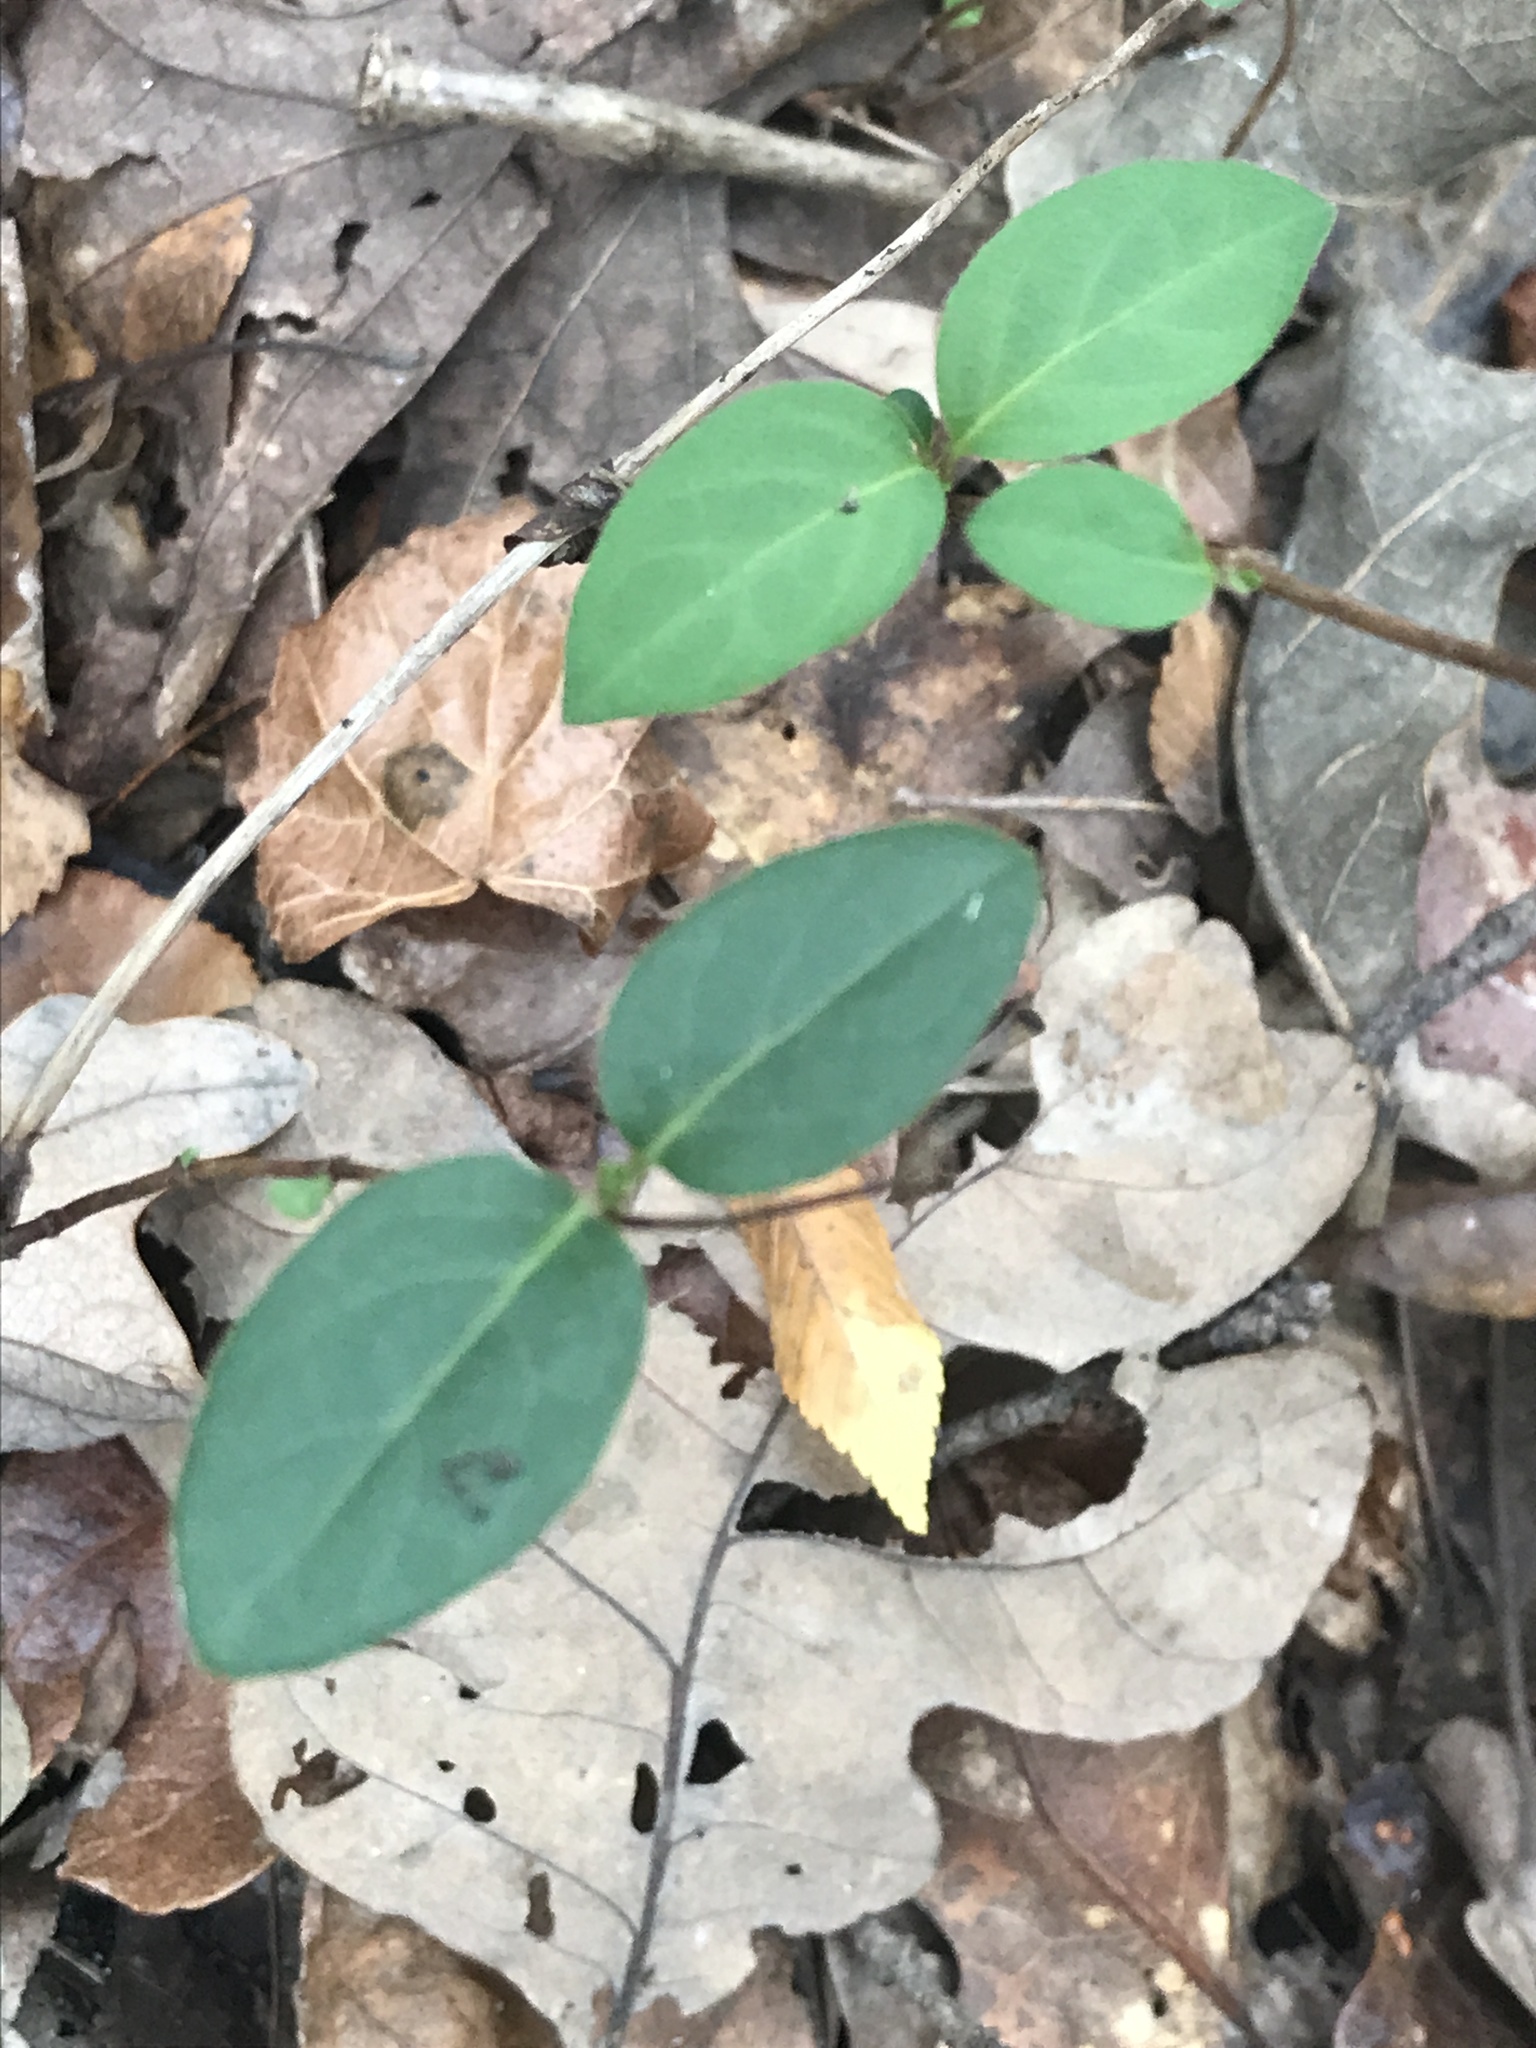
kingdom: Plantae
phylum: Tracheophyta
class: Magnoliopsida
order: Dipsacales
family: Caprifoliaceae
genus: Lonicera
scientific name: Lonicera japonica
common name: Japanese honeysuckle
